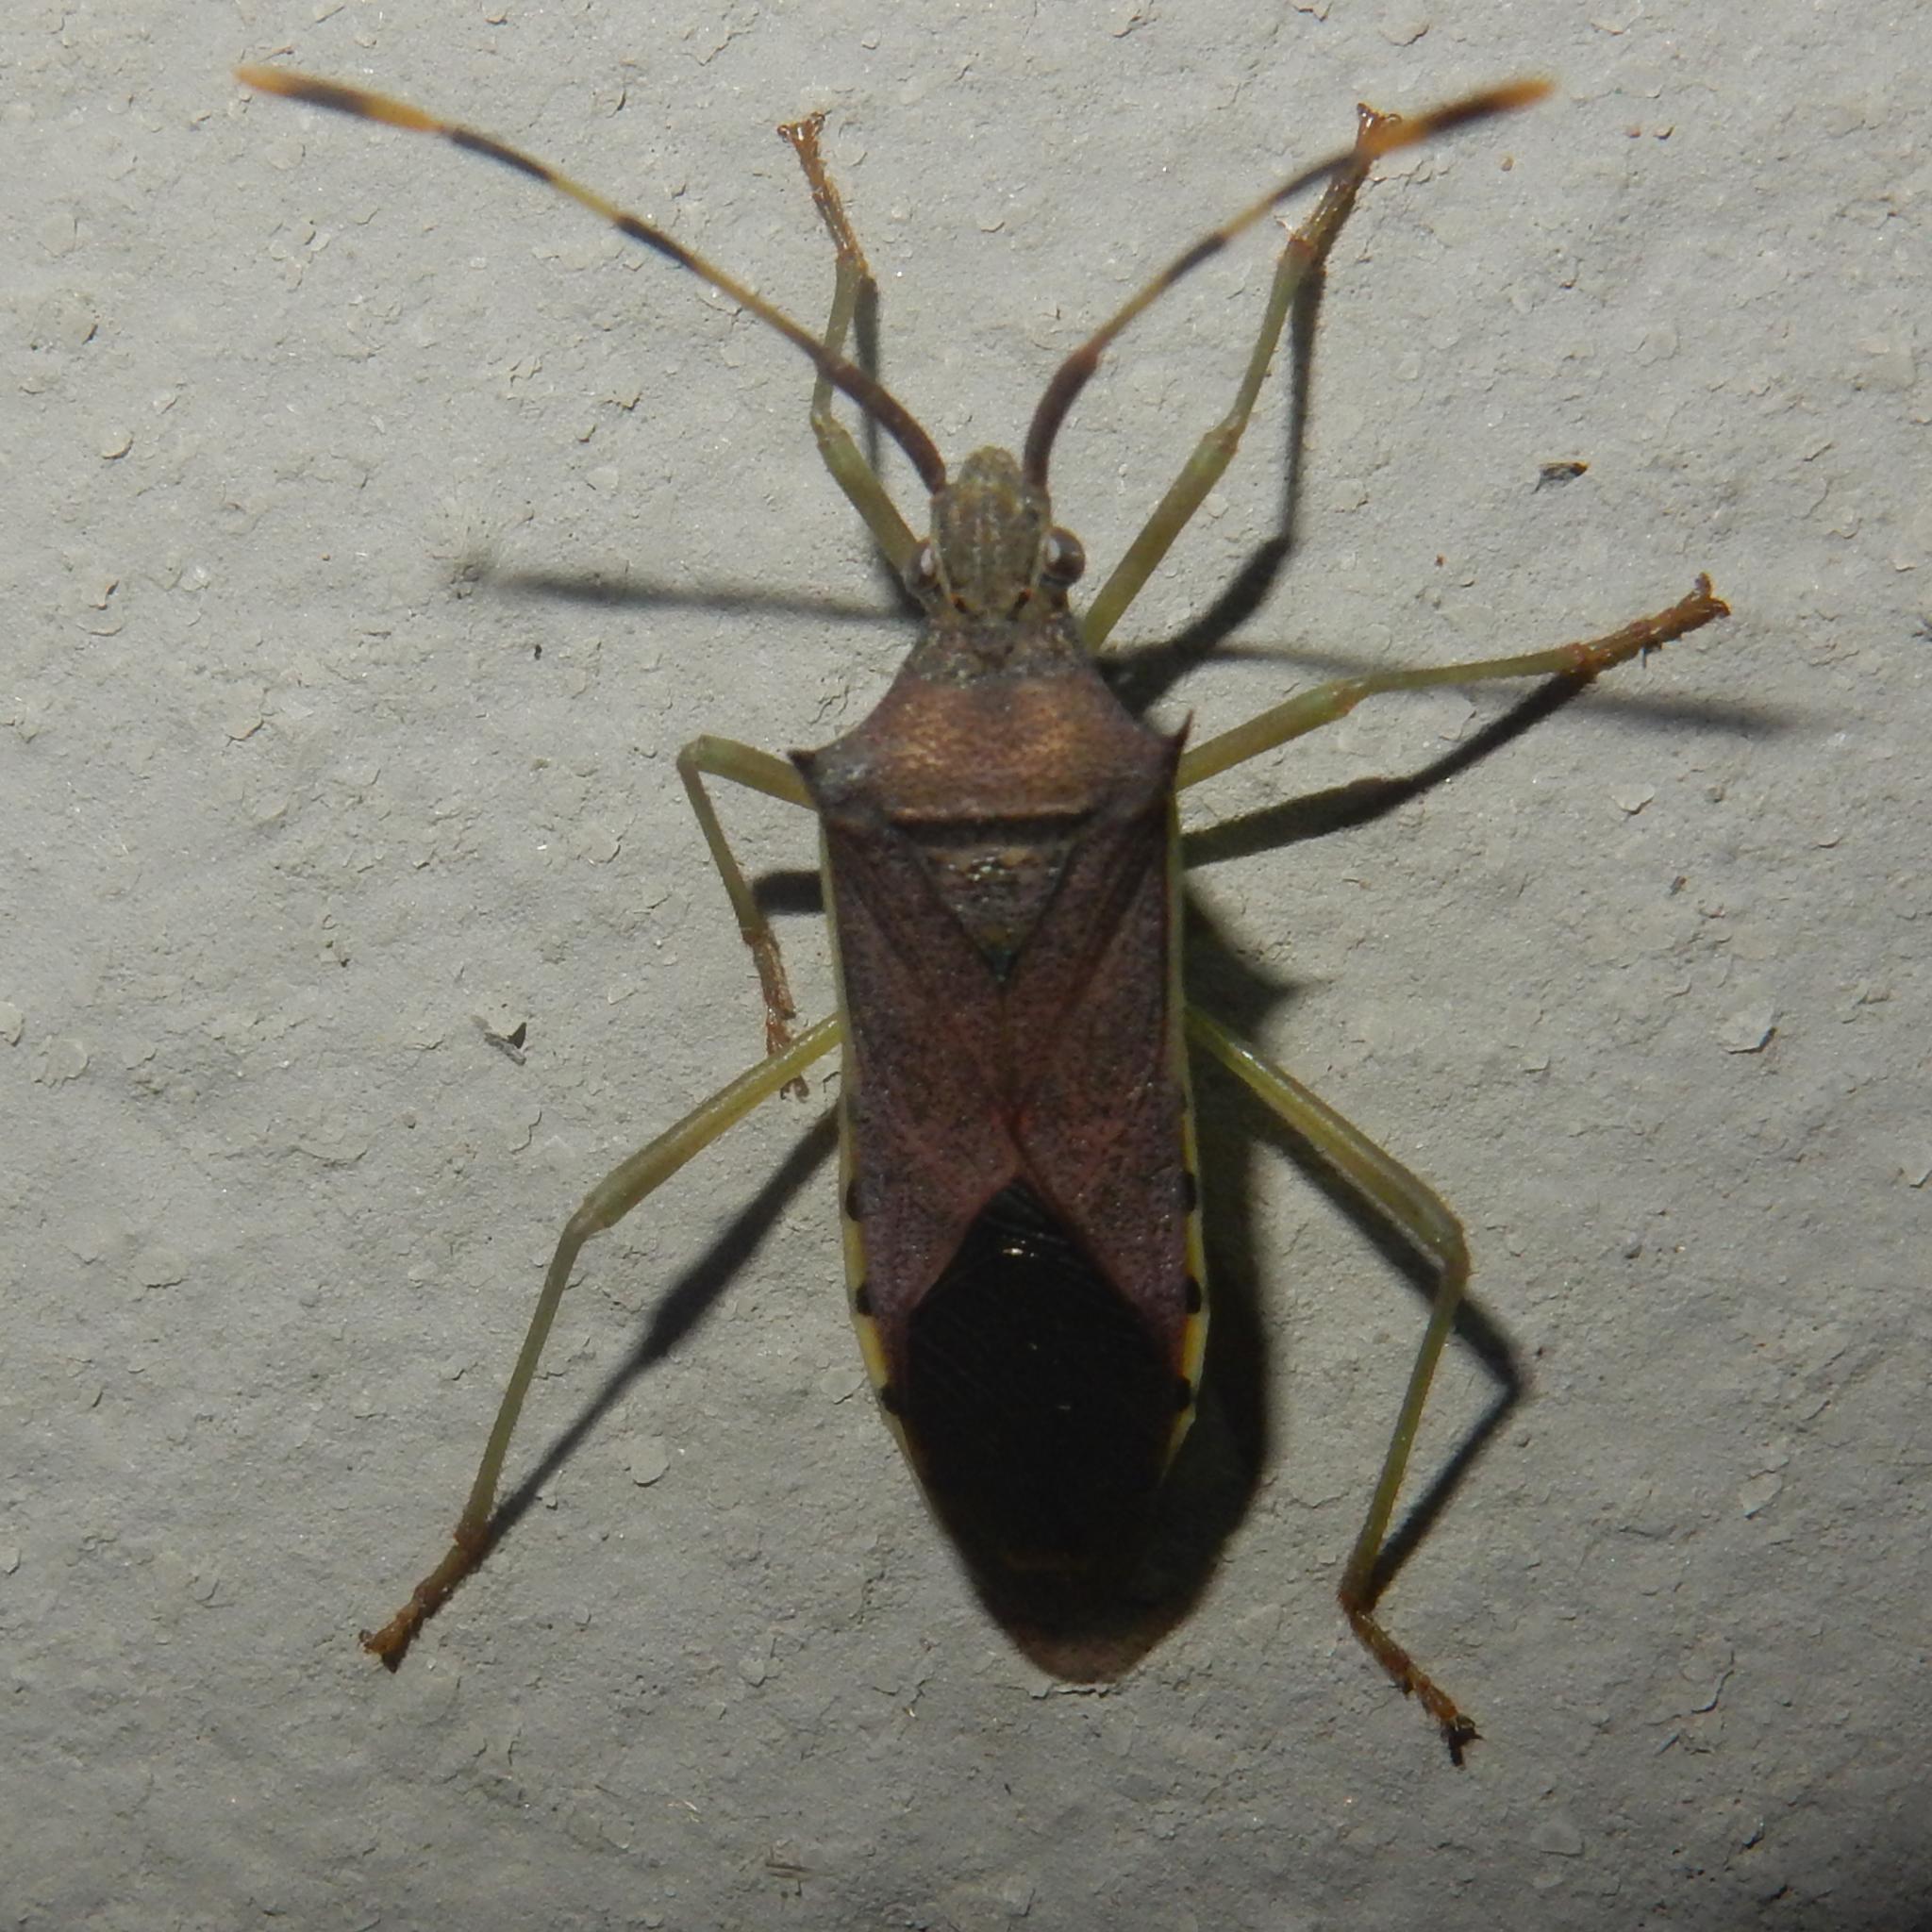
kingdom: Animalia
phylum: Arthropoda
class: Insecta
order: Hemiptera
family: Coreidae
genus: Plinachtus
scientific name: Plinachtus pungens
